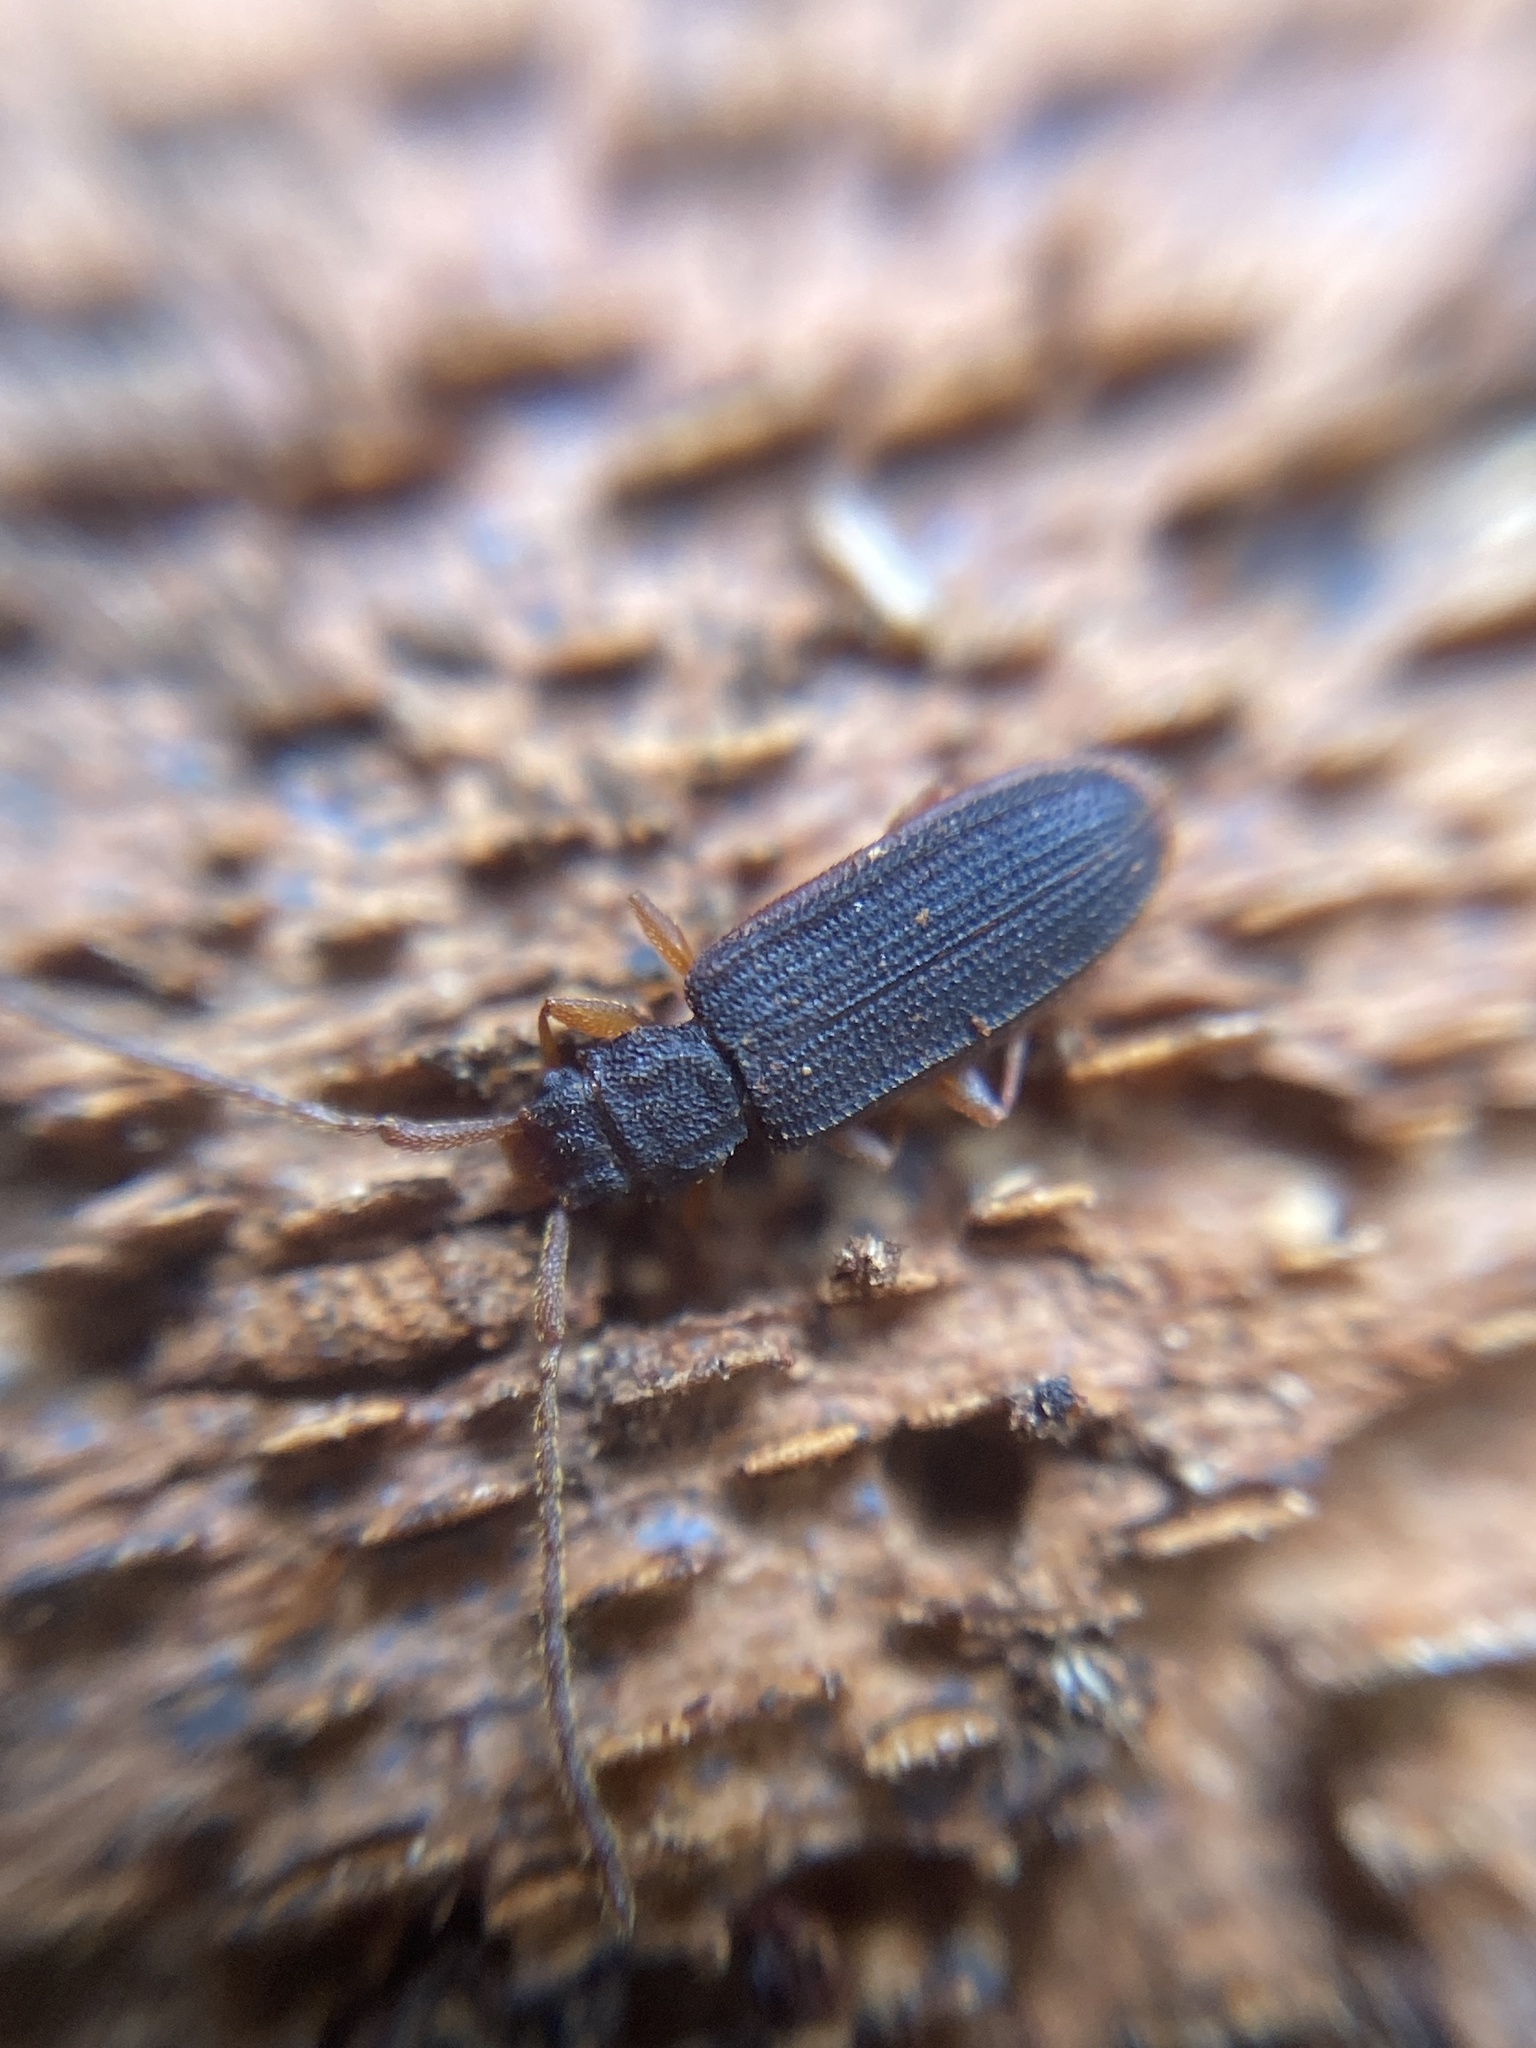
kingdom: Animalia
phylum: Arthropoda
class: Insecta
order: Coleoptera
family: Silvanidae
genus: Uleiota
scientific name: Uleiota planatus
